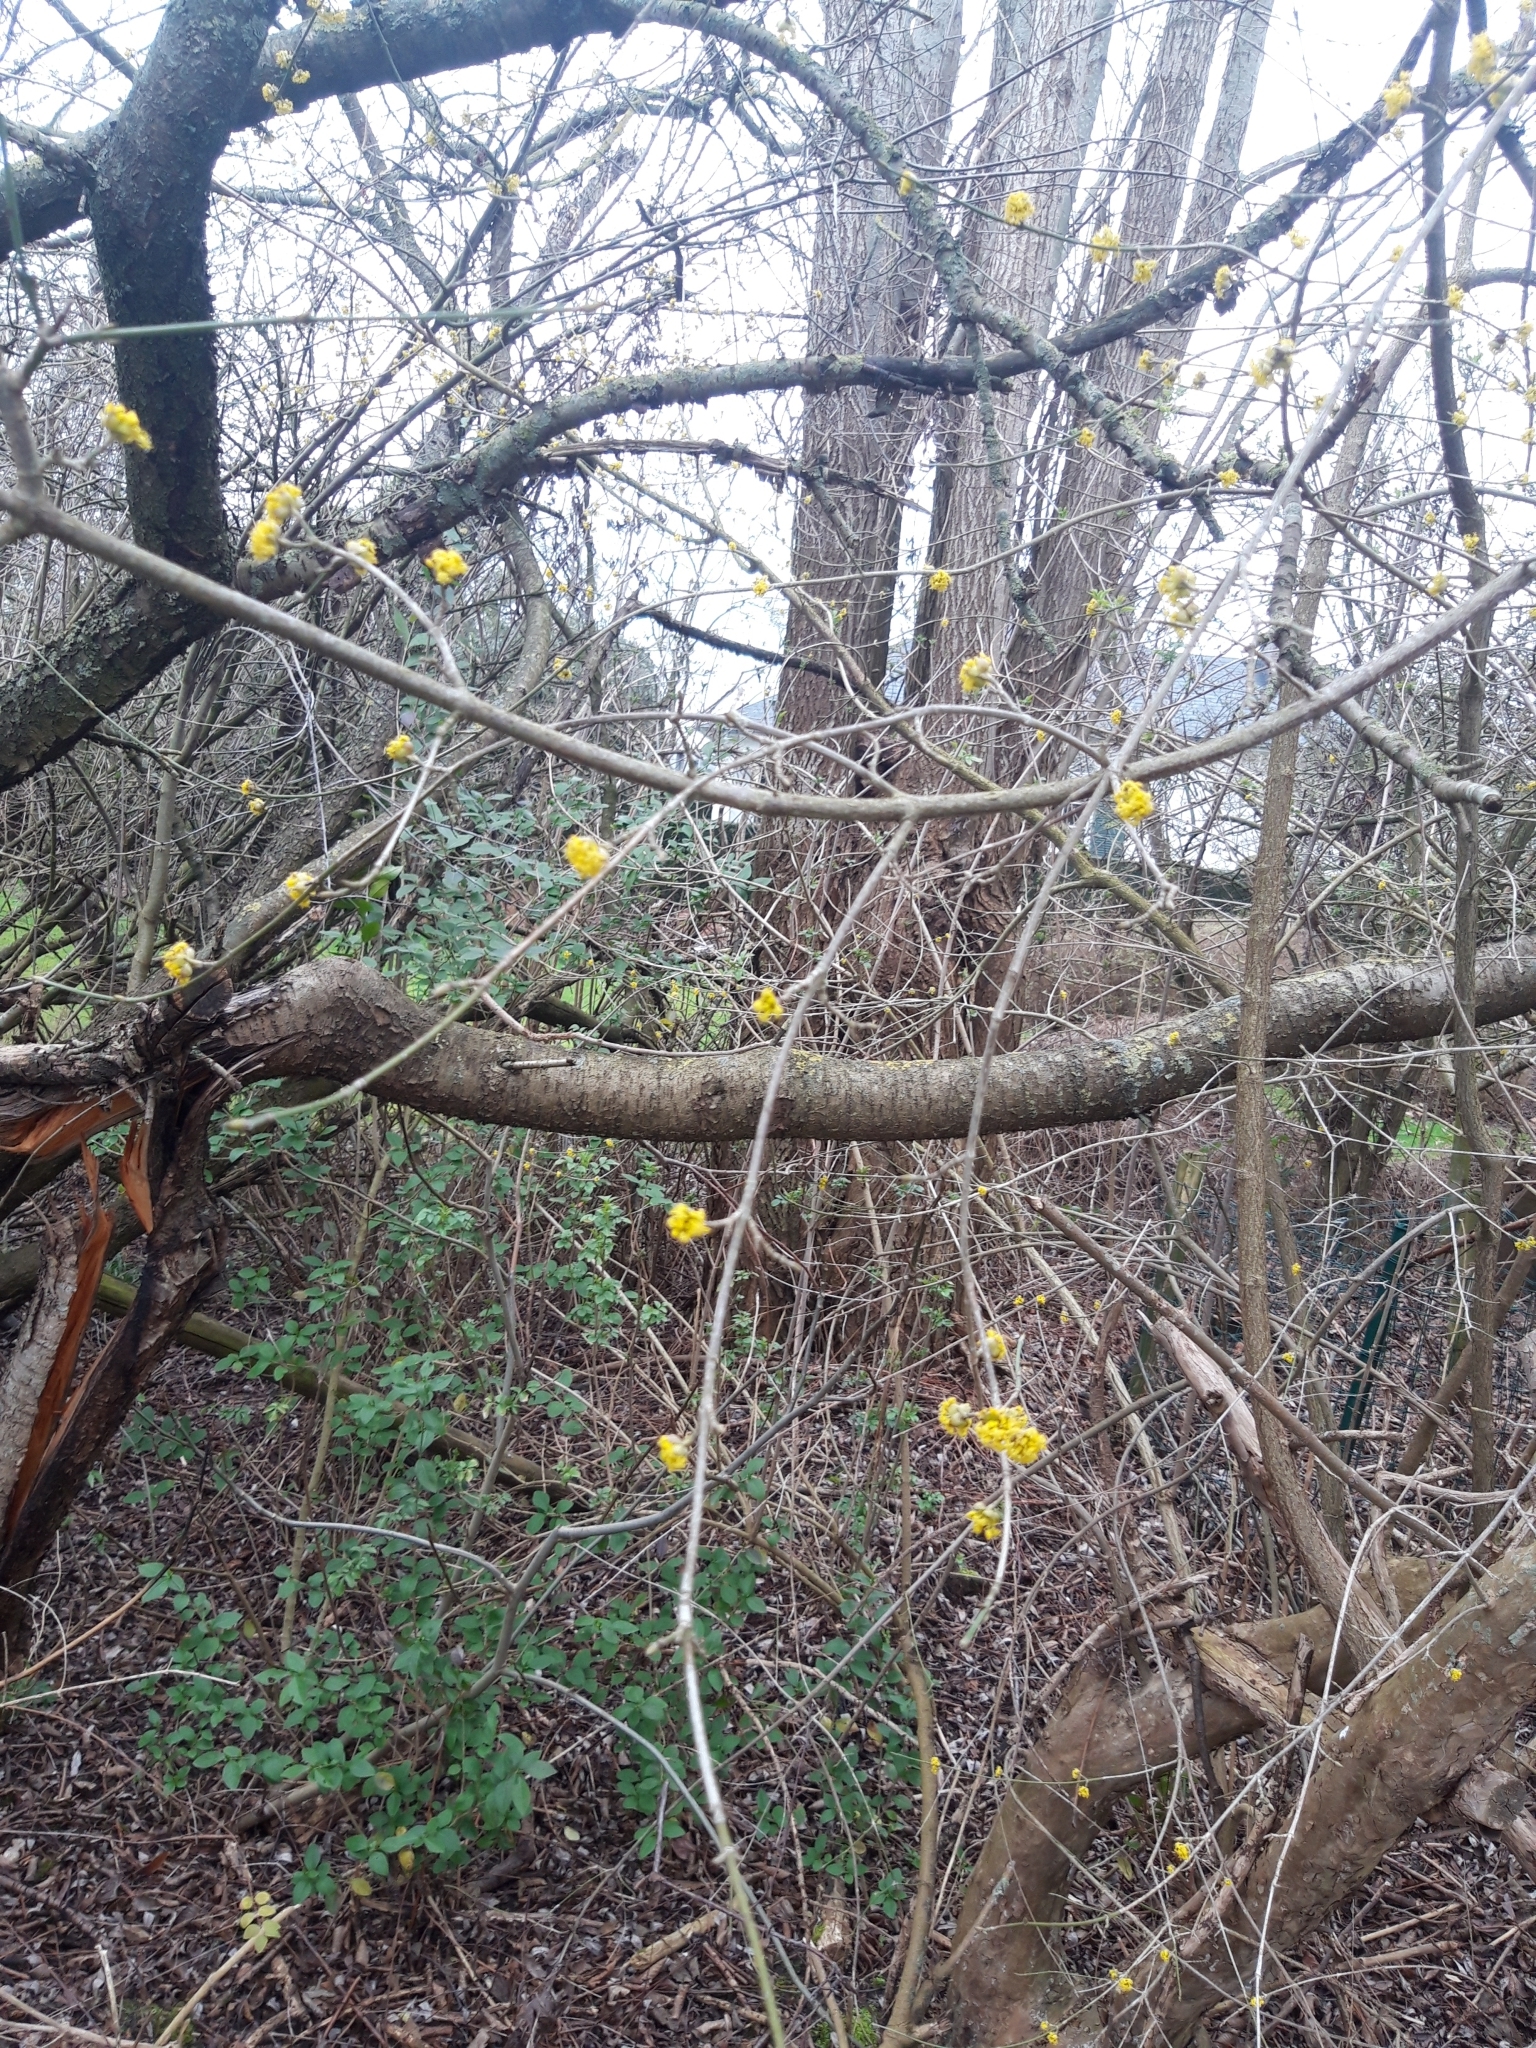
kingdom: Plantae
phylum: Tracheophyta
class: Magnoliopsida
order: Cornales
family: Cornaceae
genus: Cornus
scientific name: Cornus mas
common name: Cornelian-cherry
